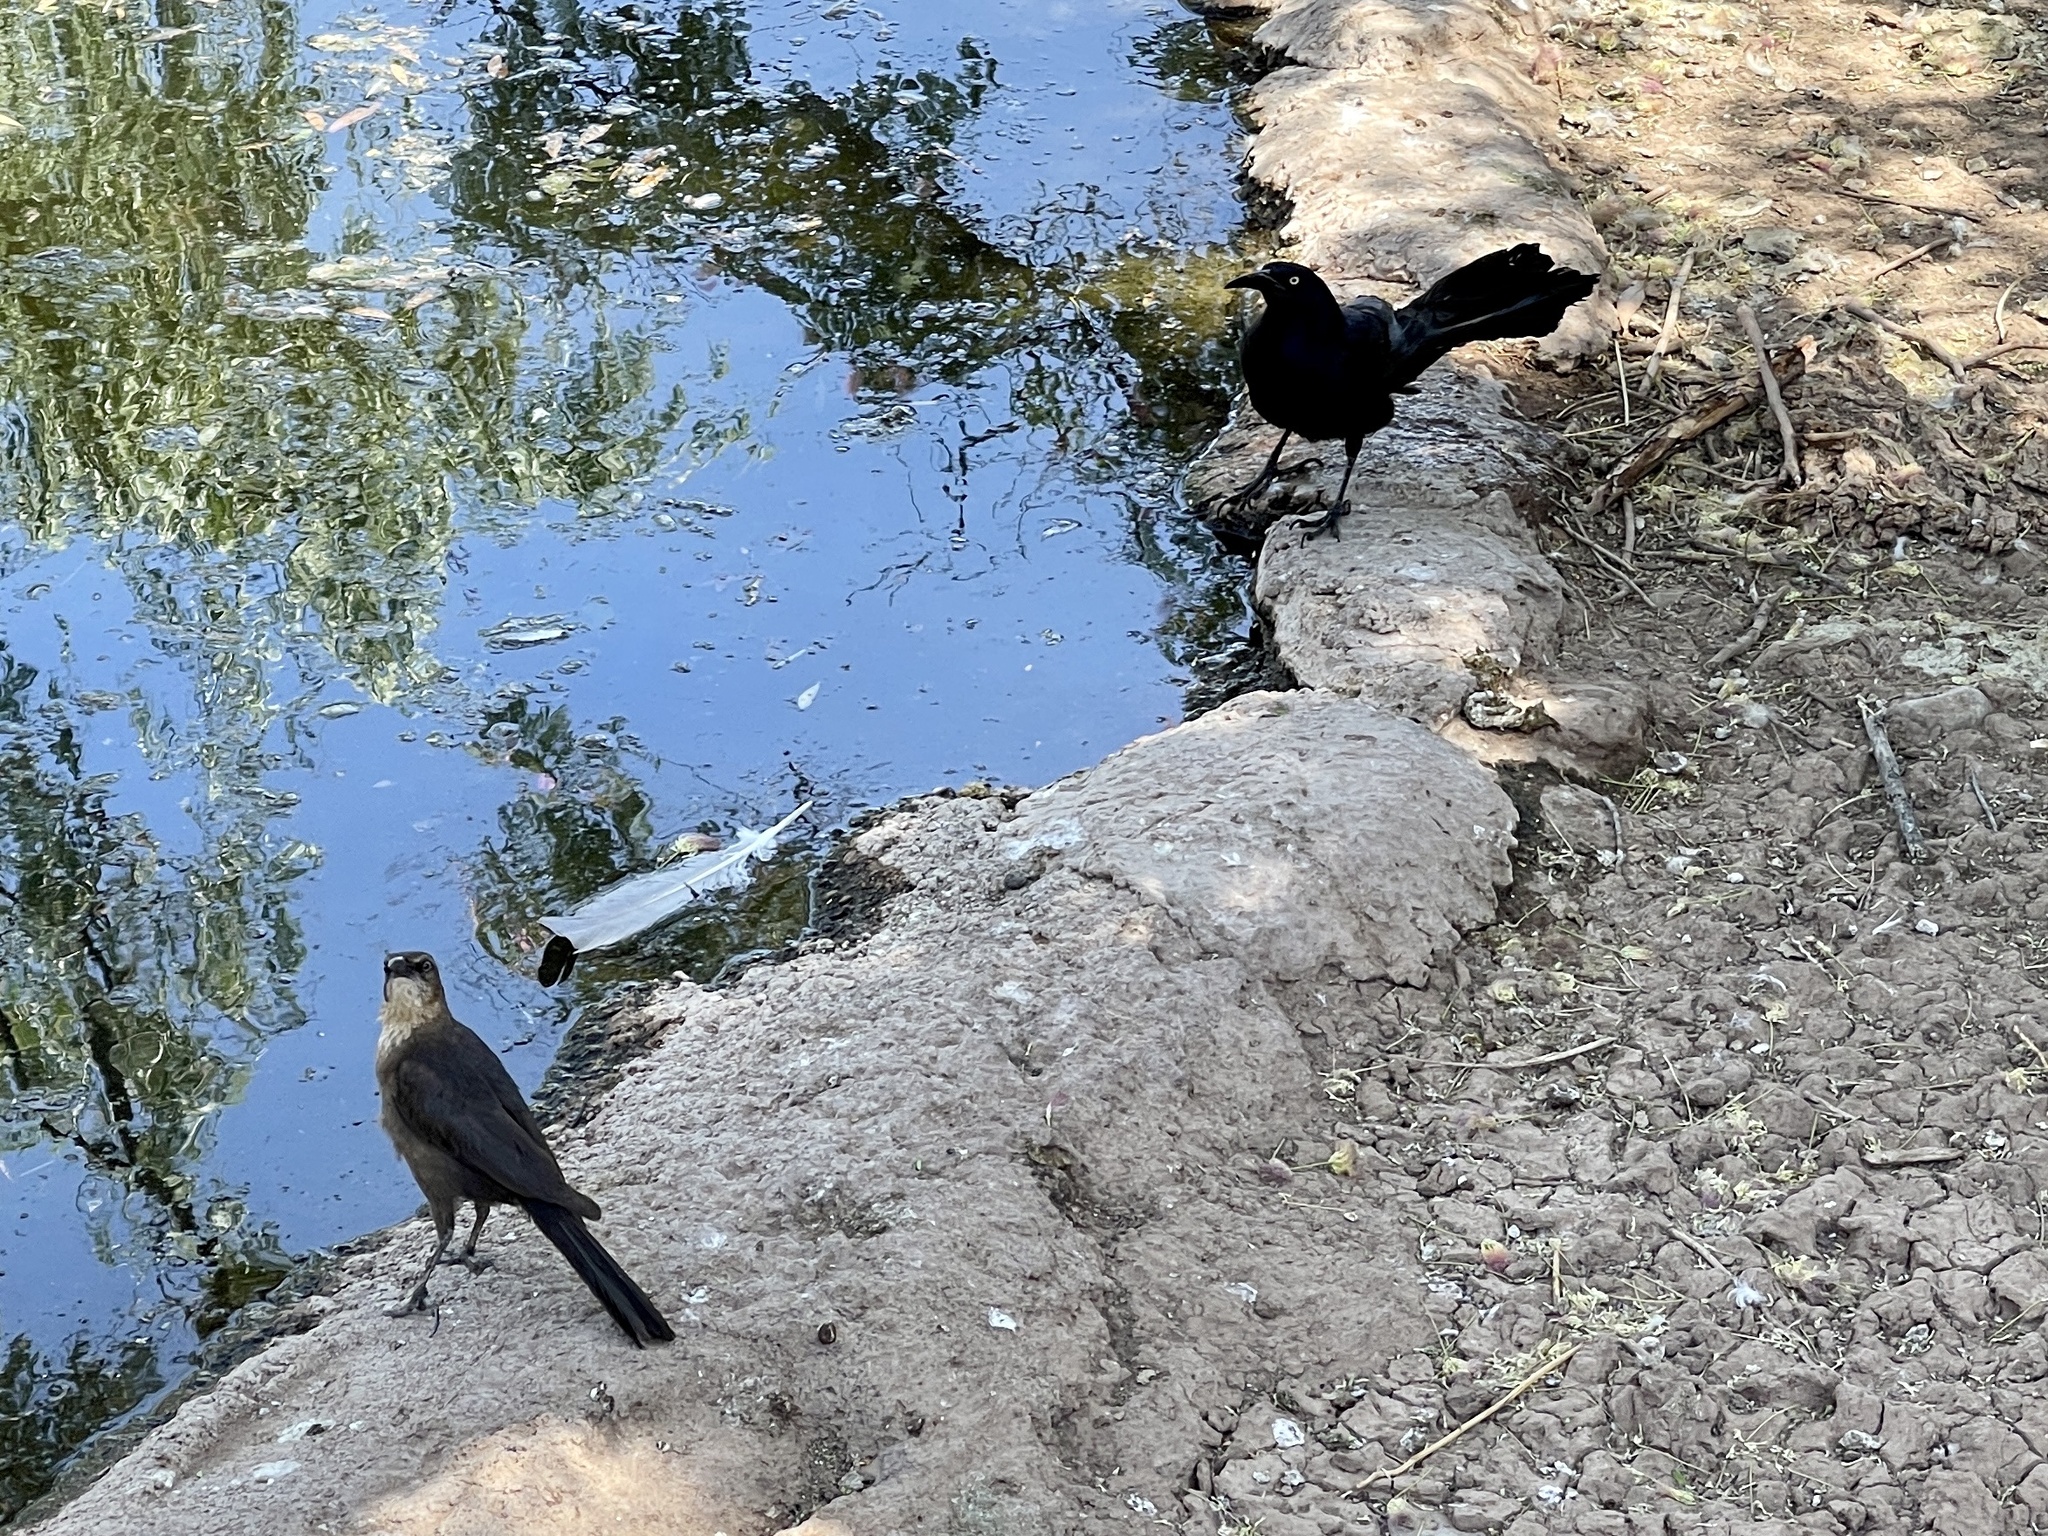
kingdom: Animalia
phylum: Chordata
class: Aves
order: Passeriformes
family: Icteridae
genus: Quiscalus
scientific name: Quiscalus mexicanus
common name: Great-tailed grackle
